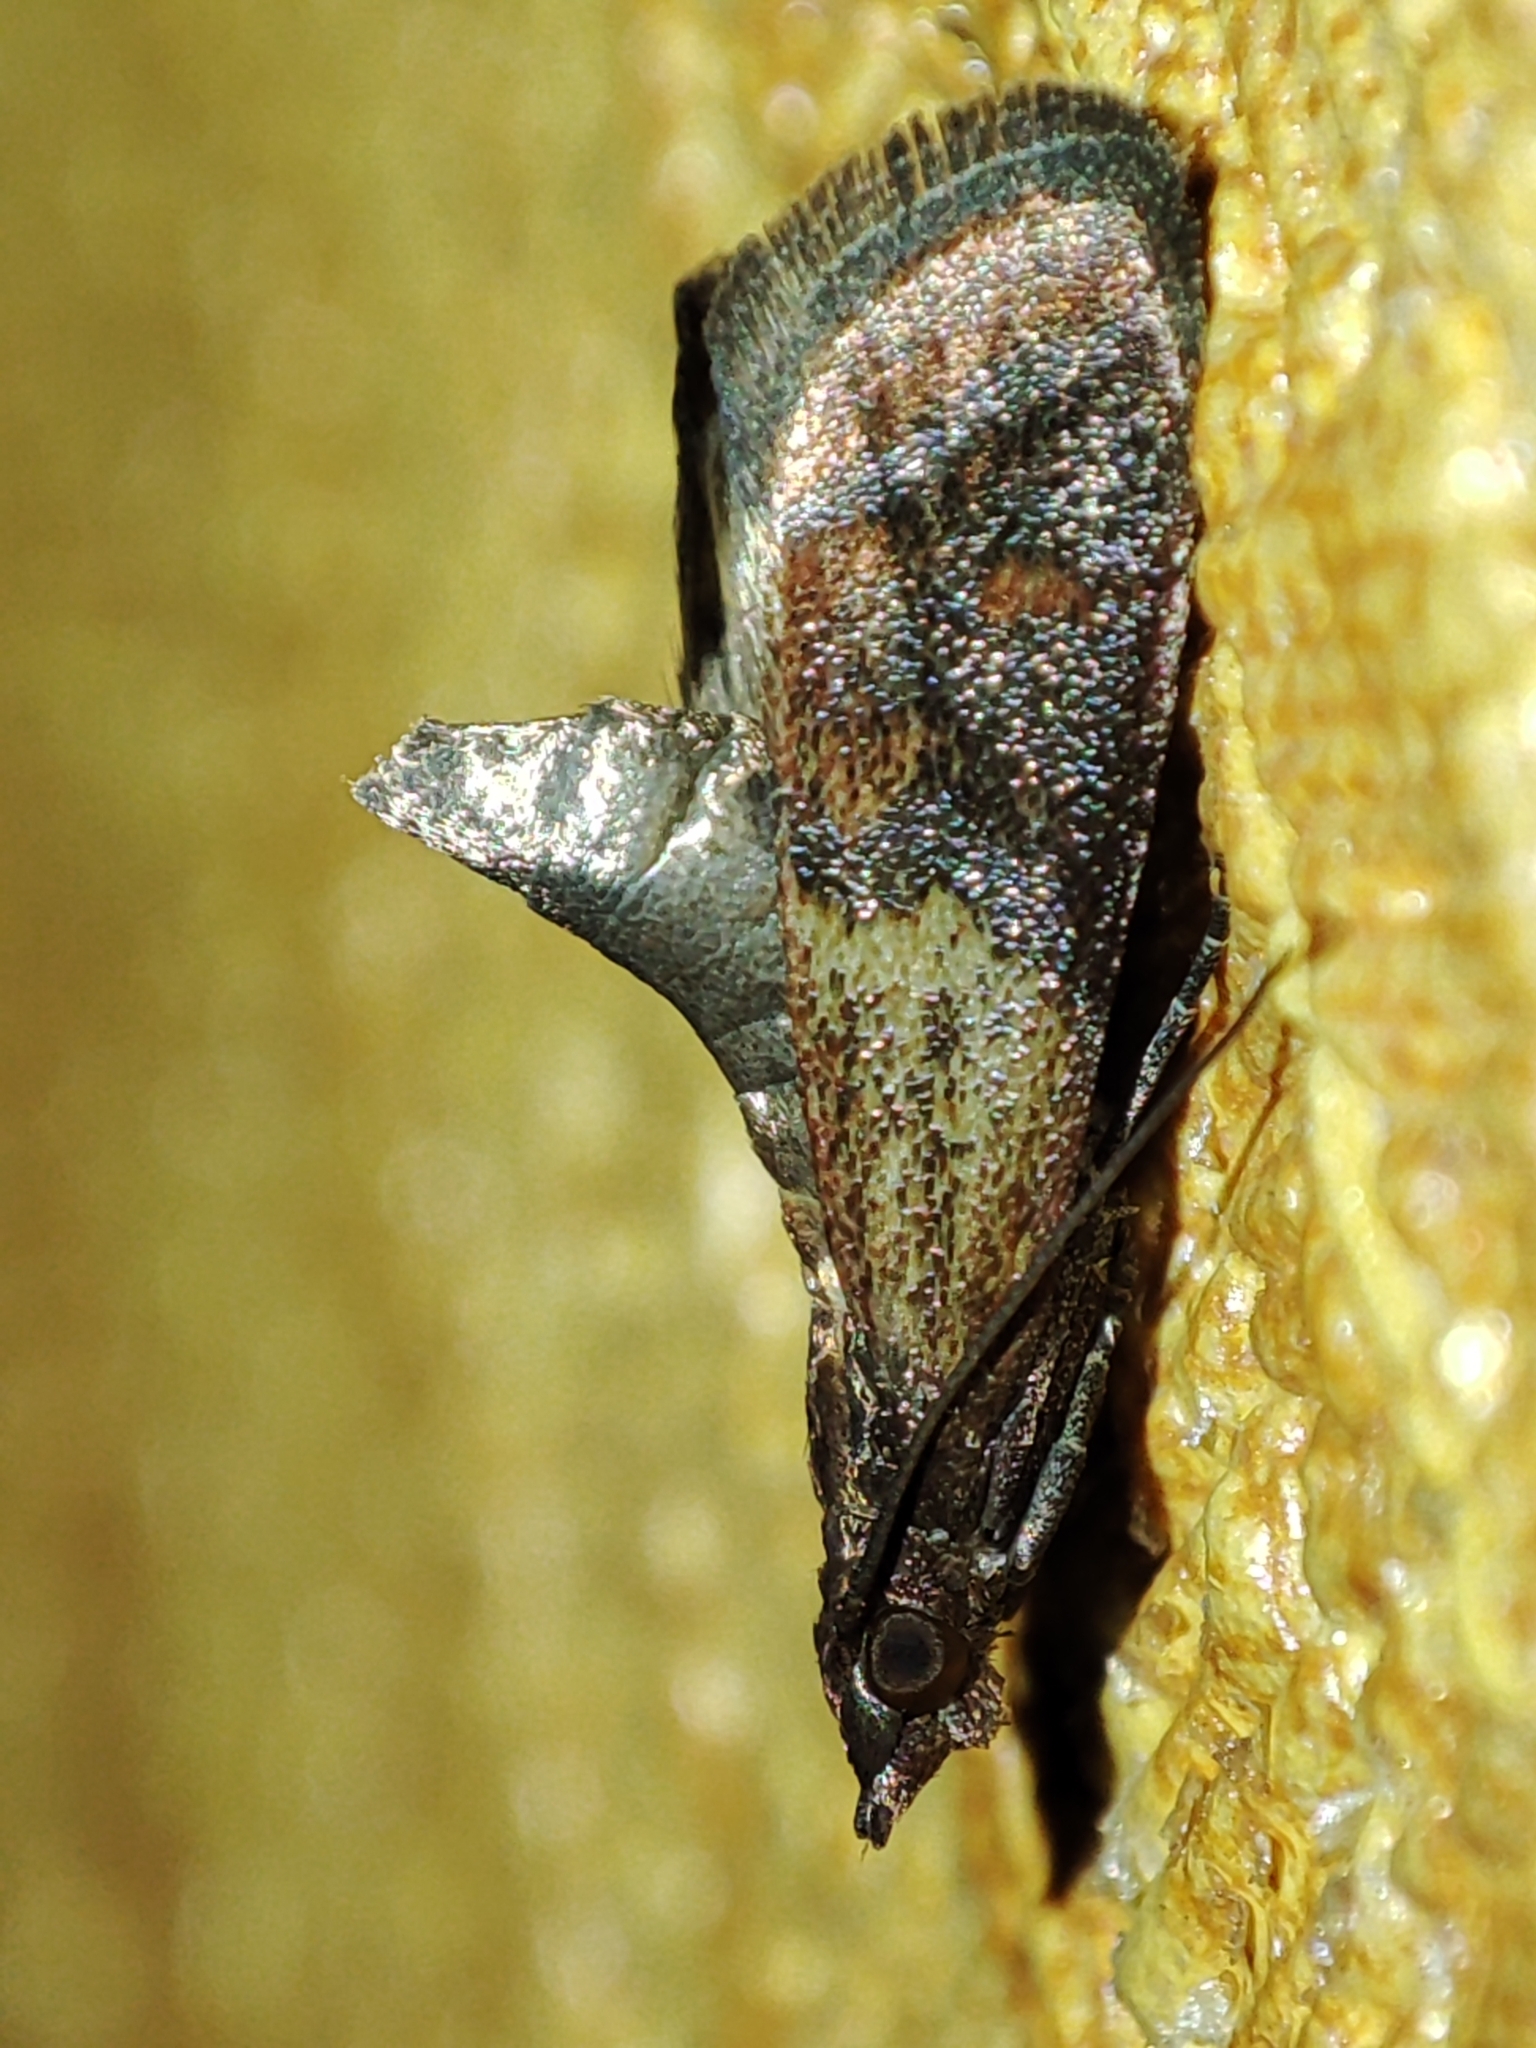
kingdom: Animalia
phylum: Arthropoda
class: Insecta
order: Lepidoptera
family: Pyralidae
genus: Plodia
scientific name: Plodia interpunctella
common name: Indian meal moth
